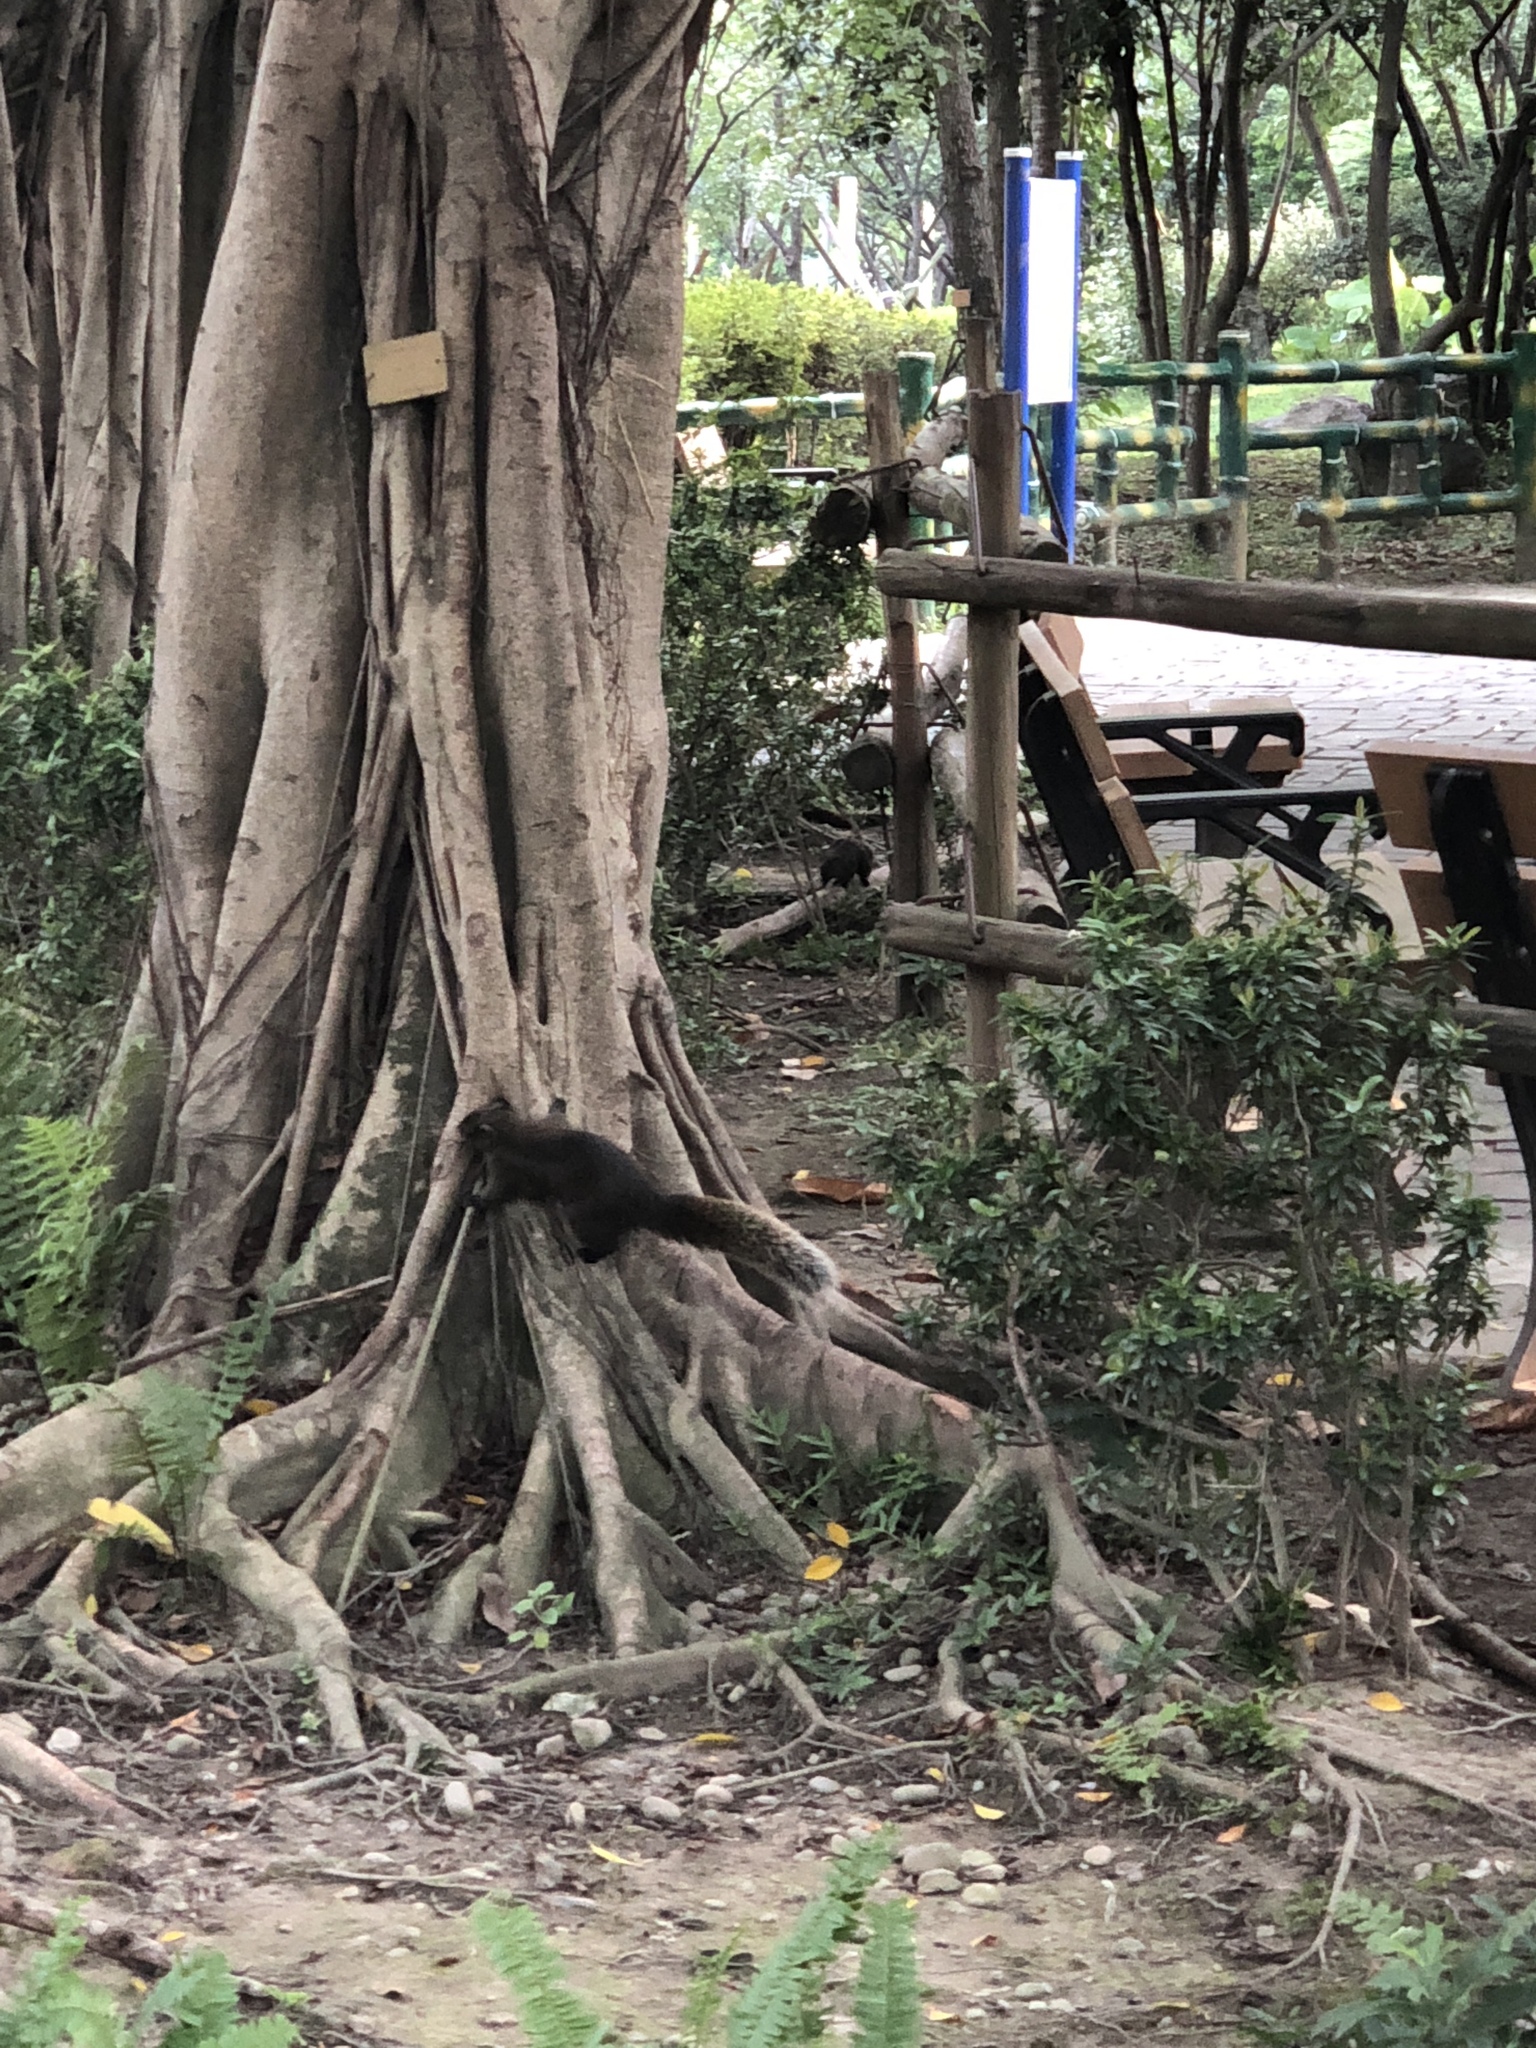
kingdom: Animalia
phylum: Chordata
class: Mammalia
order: Rodentia
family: Sciuridae
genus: Callosciurus
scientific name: Callosciurus erythraeus
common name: Pallas's squirrel
